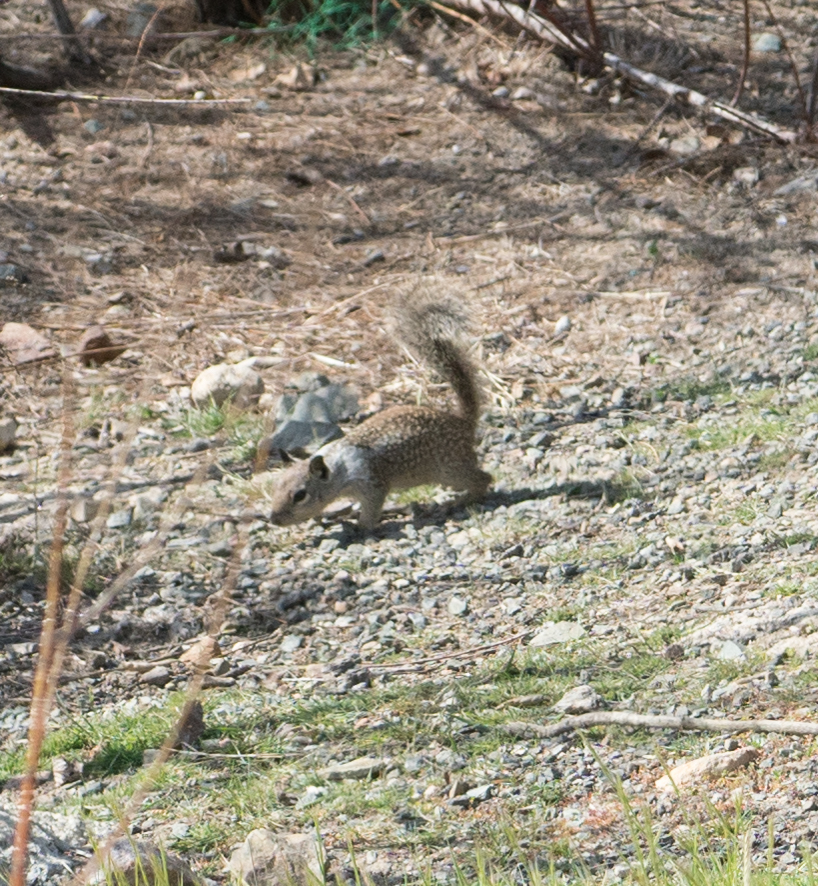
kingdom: Animalia
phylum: Chordata
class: Mammalia
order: Rodentia
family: Sciuridae
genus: Otospermophilus
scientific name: Otospermophilus beecheyi
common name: California ground squirrel
